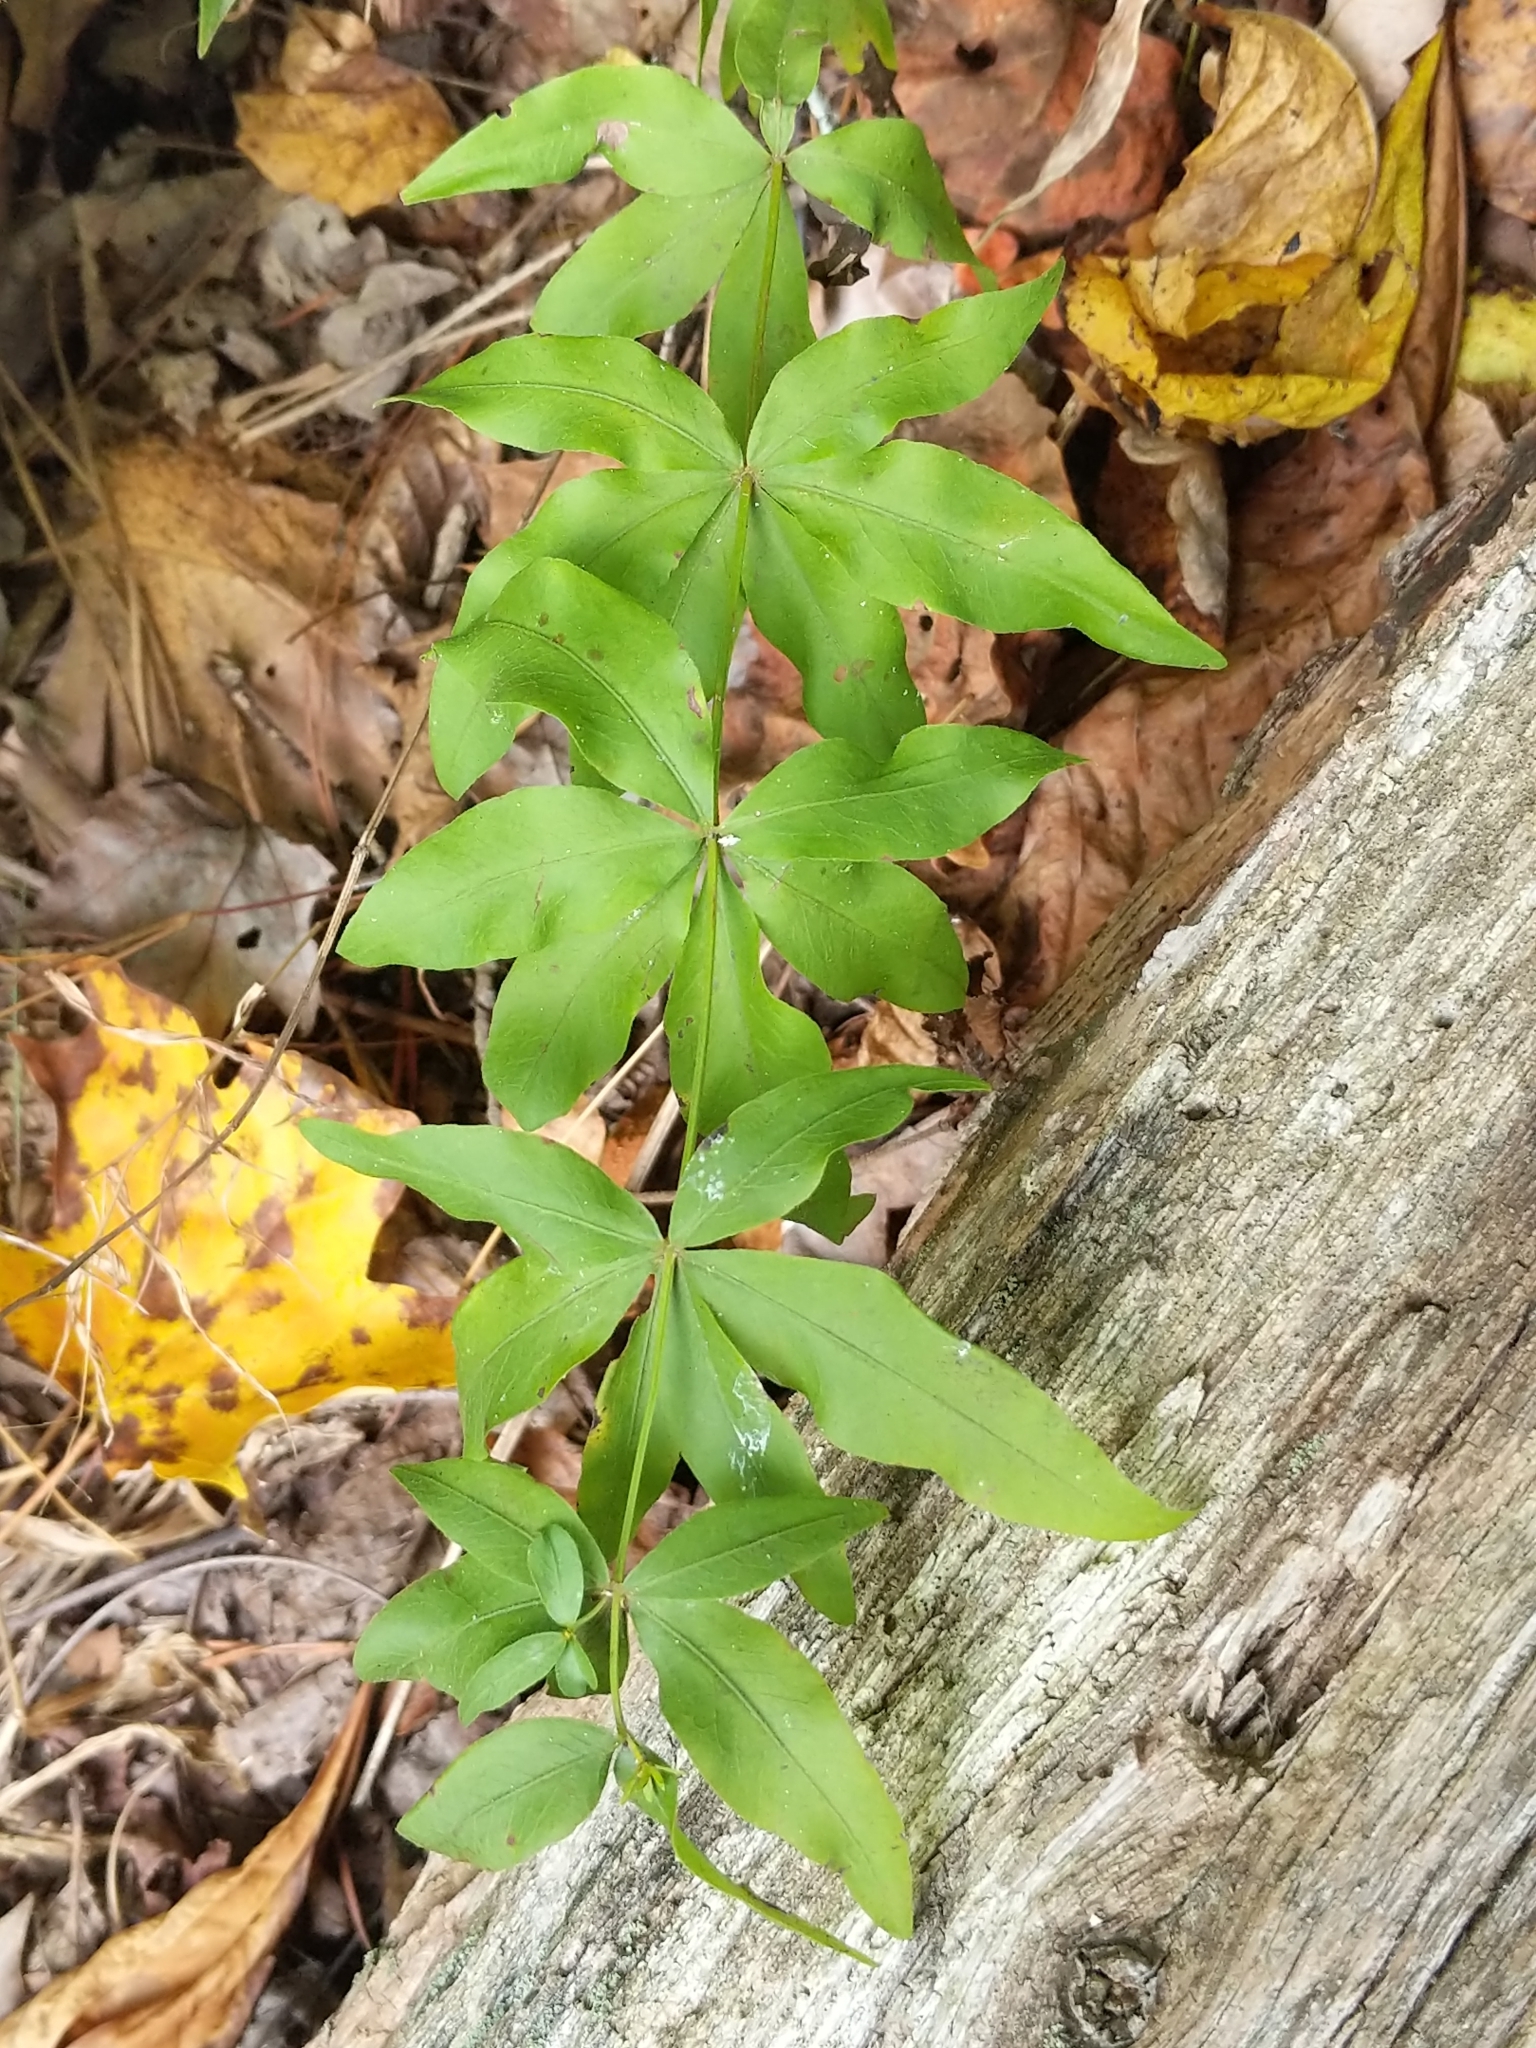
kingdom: Plantae
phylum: Tracheophyta
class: Magnoliopsida
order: Asterales
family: Asteraceae
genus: Coreopsis
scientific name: Coreopsis major
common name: Forest tickseed
